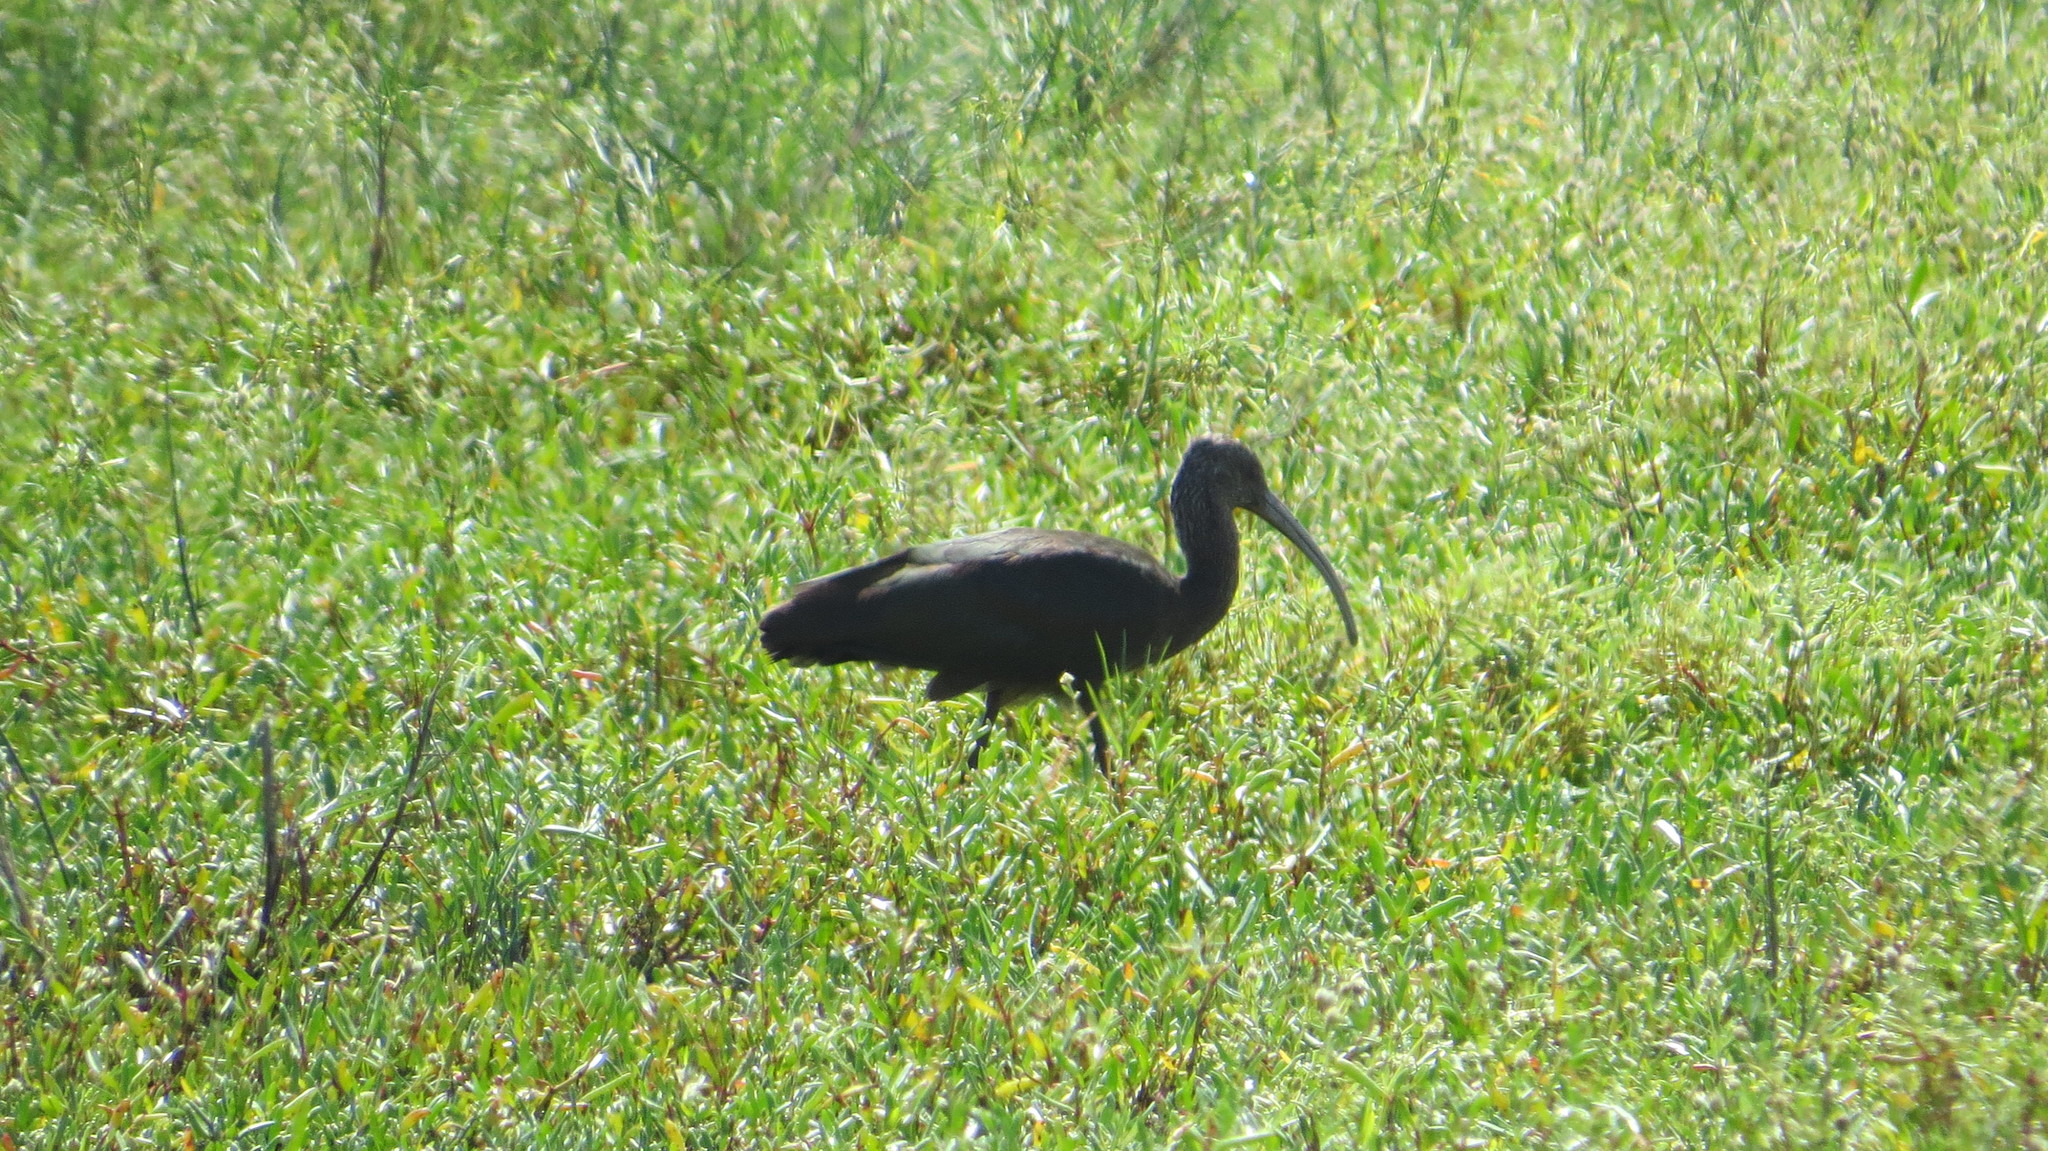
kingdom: Animalia
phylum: Chordata
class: Aves
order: Pelecaniformes
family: Threskiornithidae
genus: Plegadis
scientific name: Plegadis chihi
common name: White-faced ibis
